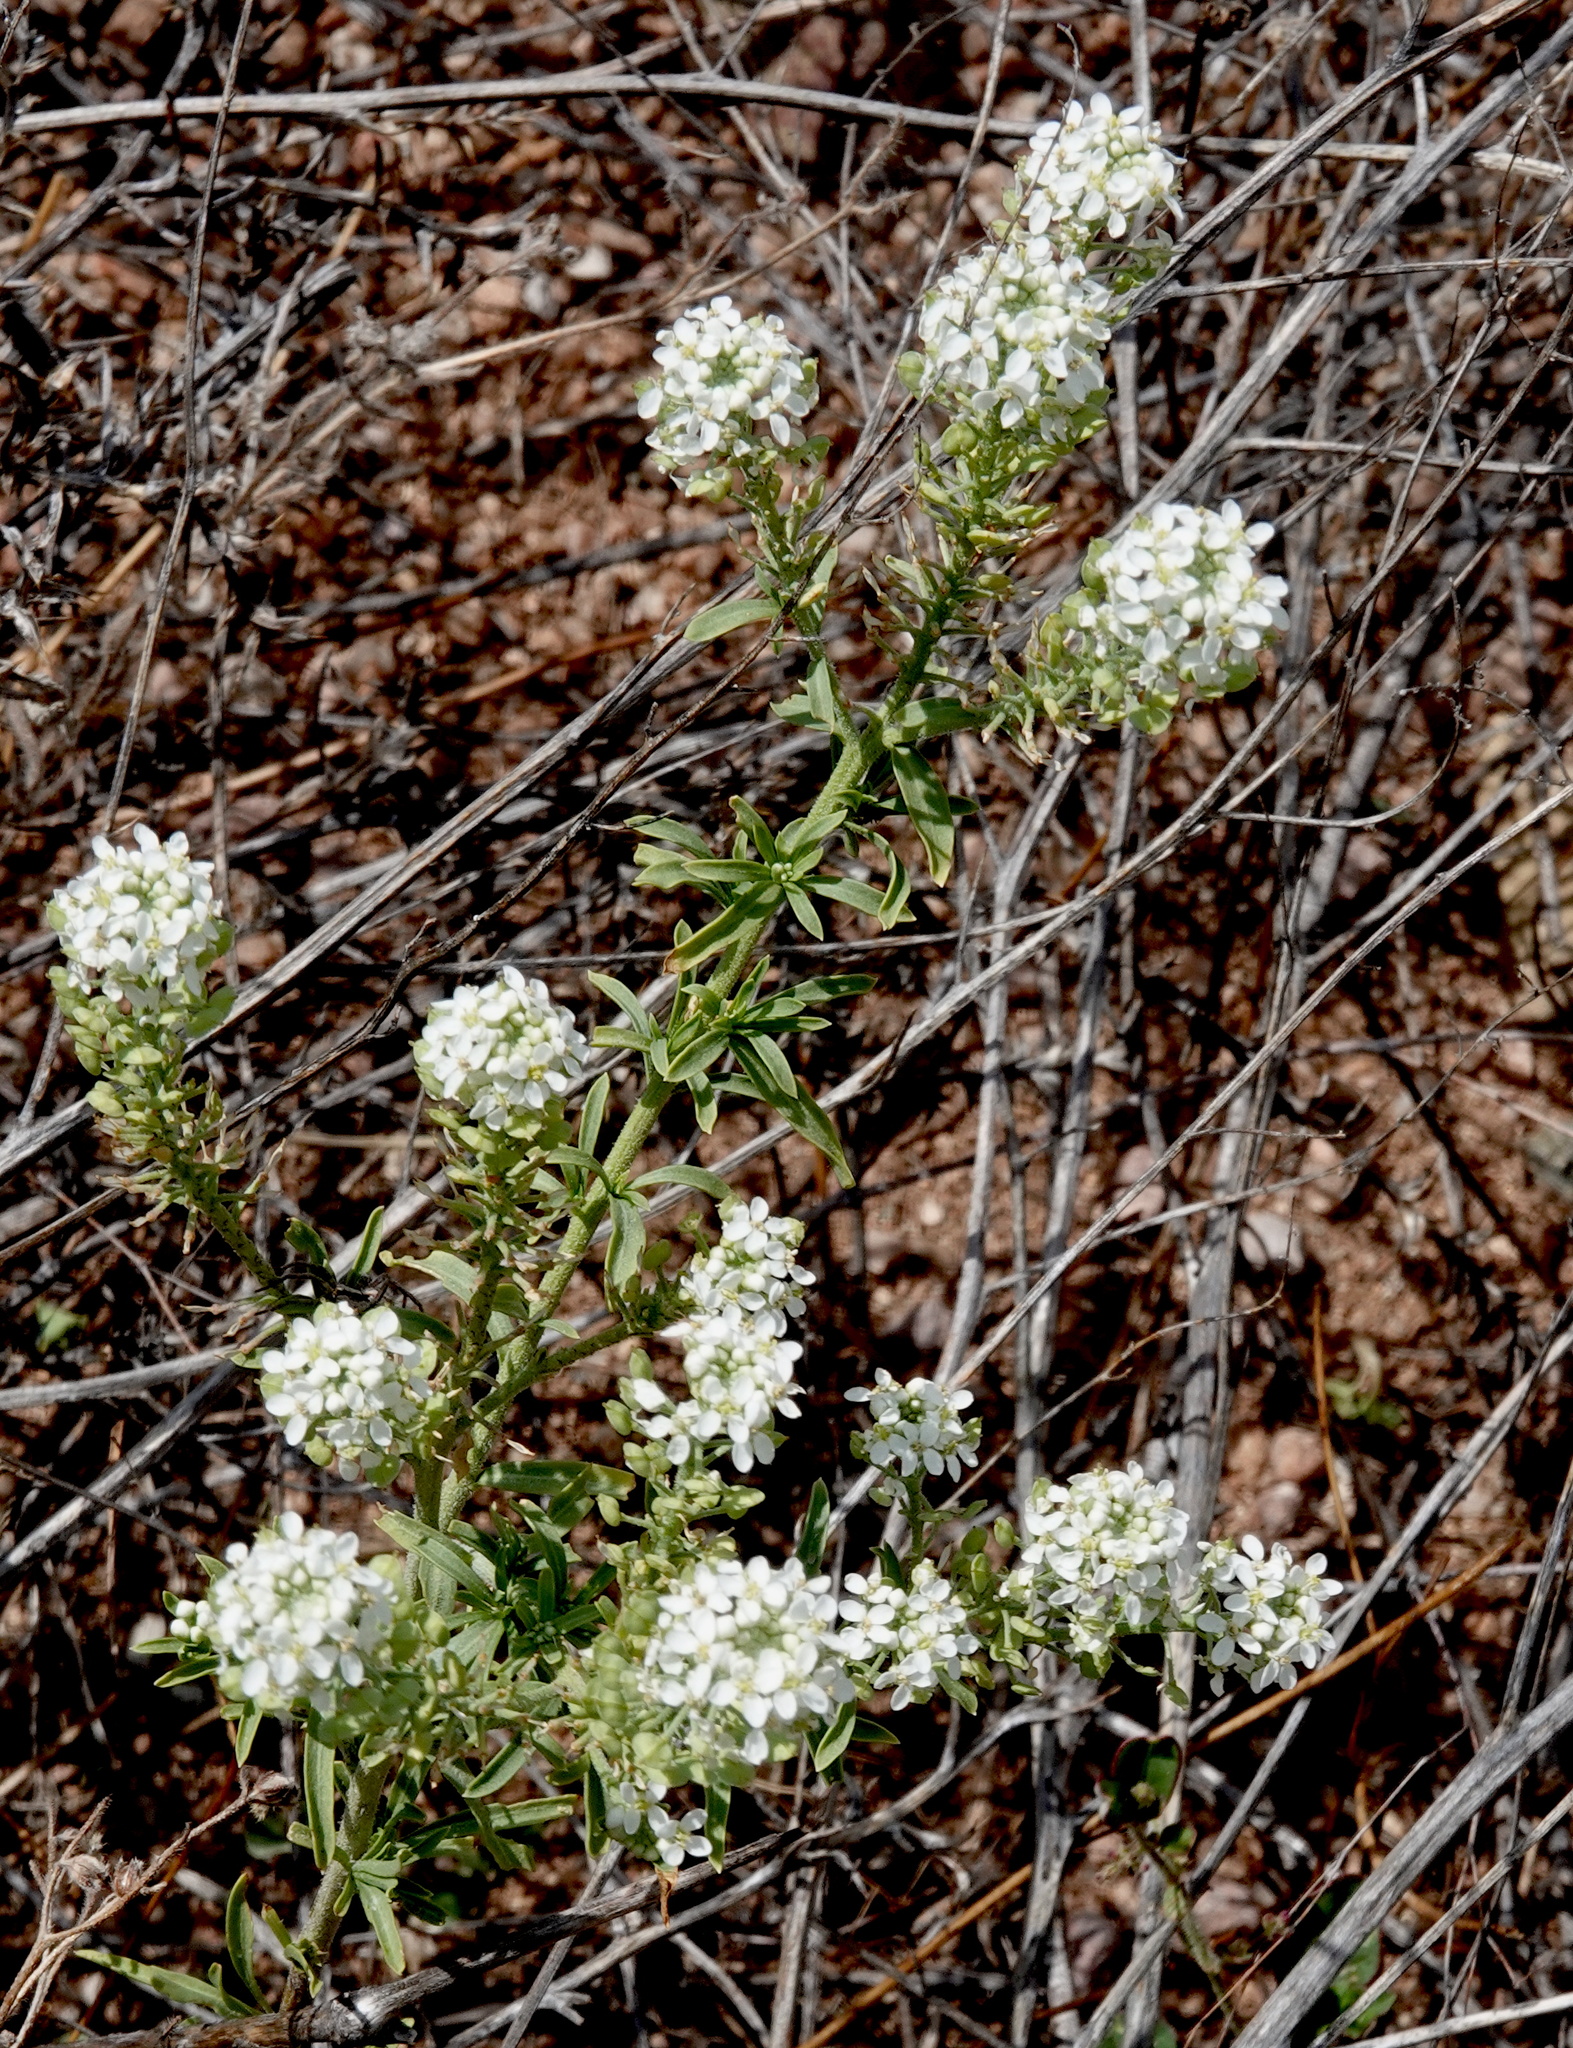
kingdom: Plantae
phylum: Tracheophyta
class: Magnoliopsida
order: Brassicales
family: Brassicaceae
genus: Lepidium
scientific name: Lepidium thurberi
